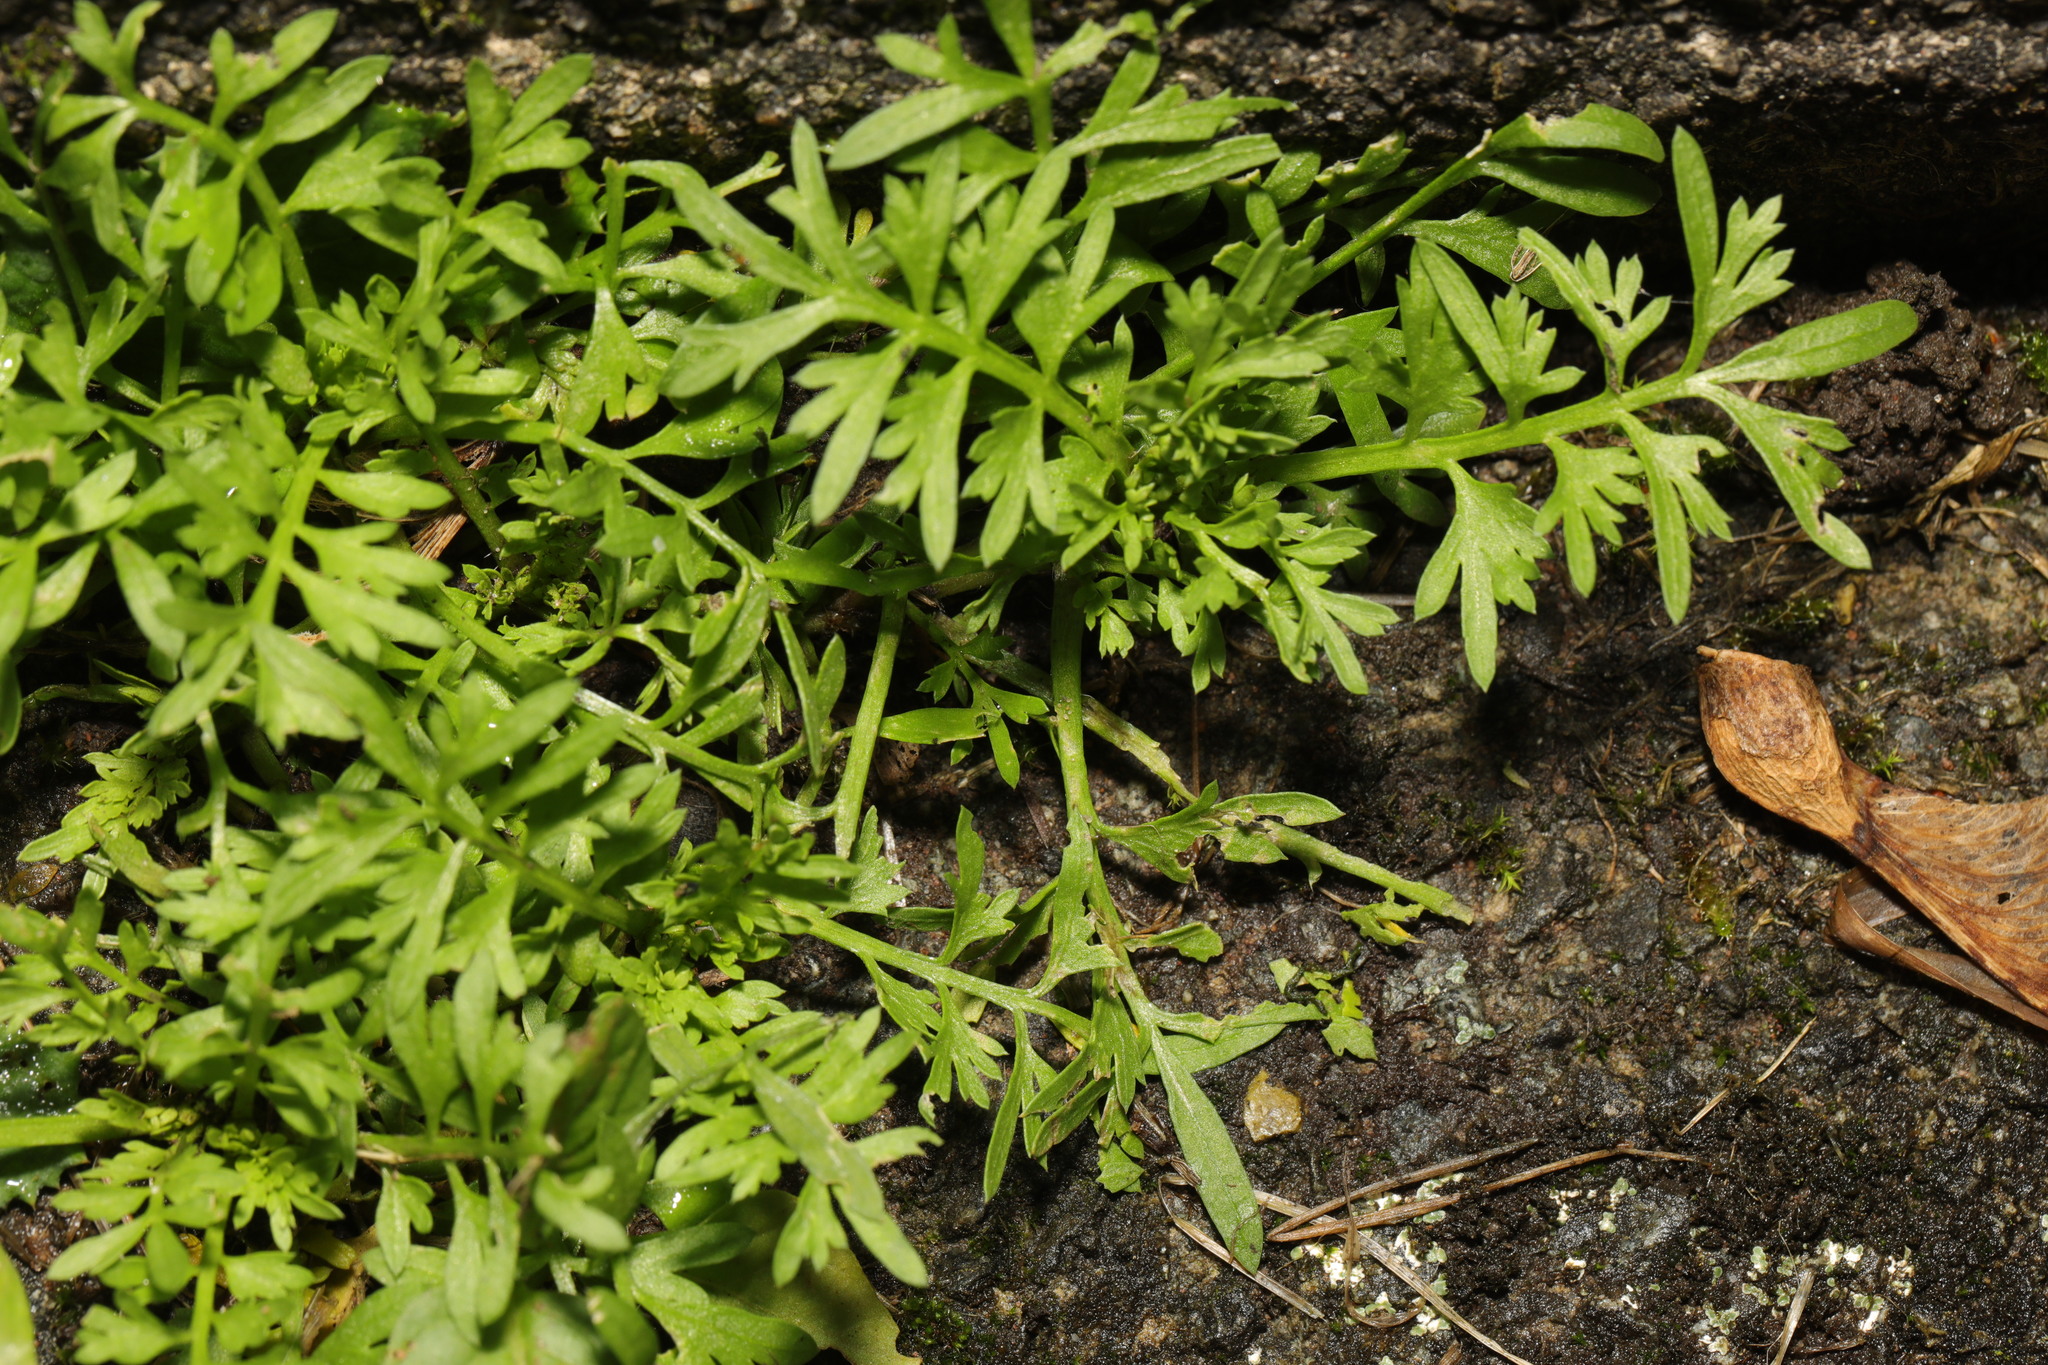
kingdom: Plantae
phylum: Tracheophyta
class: Magnoliopsida
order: Brassicales
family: Brassicaceae
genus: Lepidium
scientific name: Lepidium didymum
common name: Lesser swinecress
